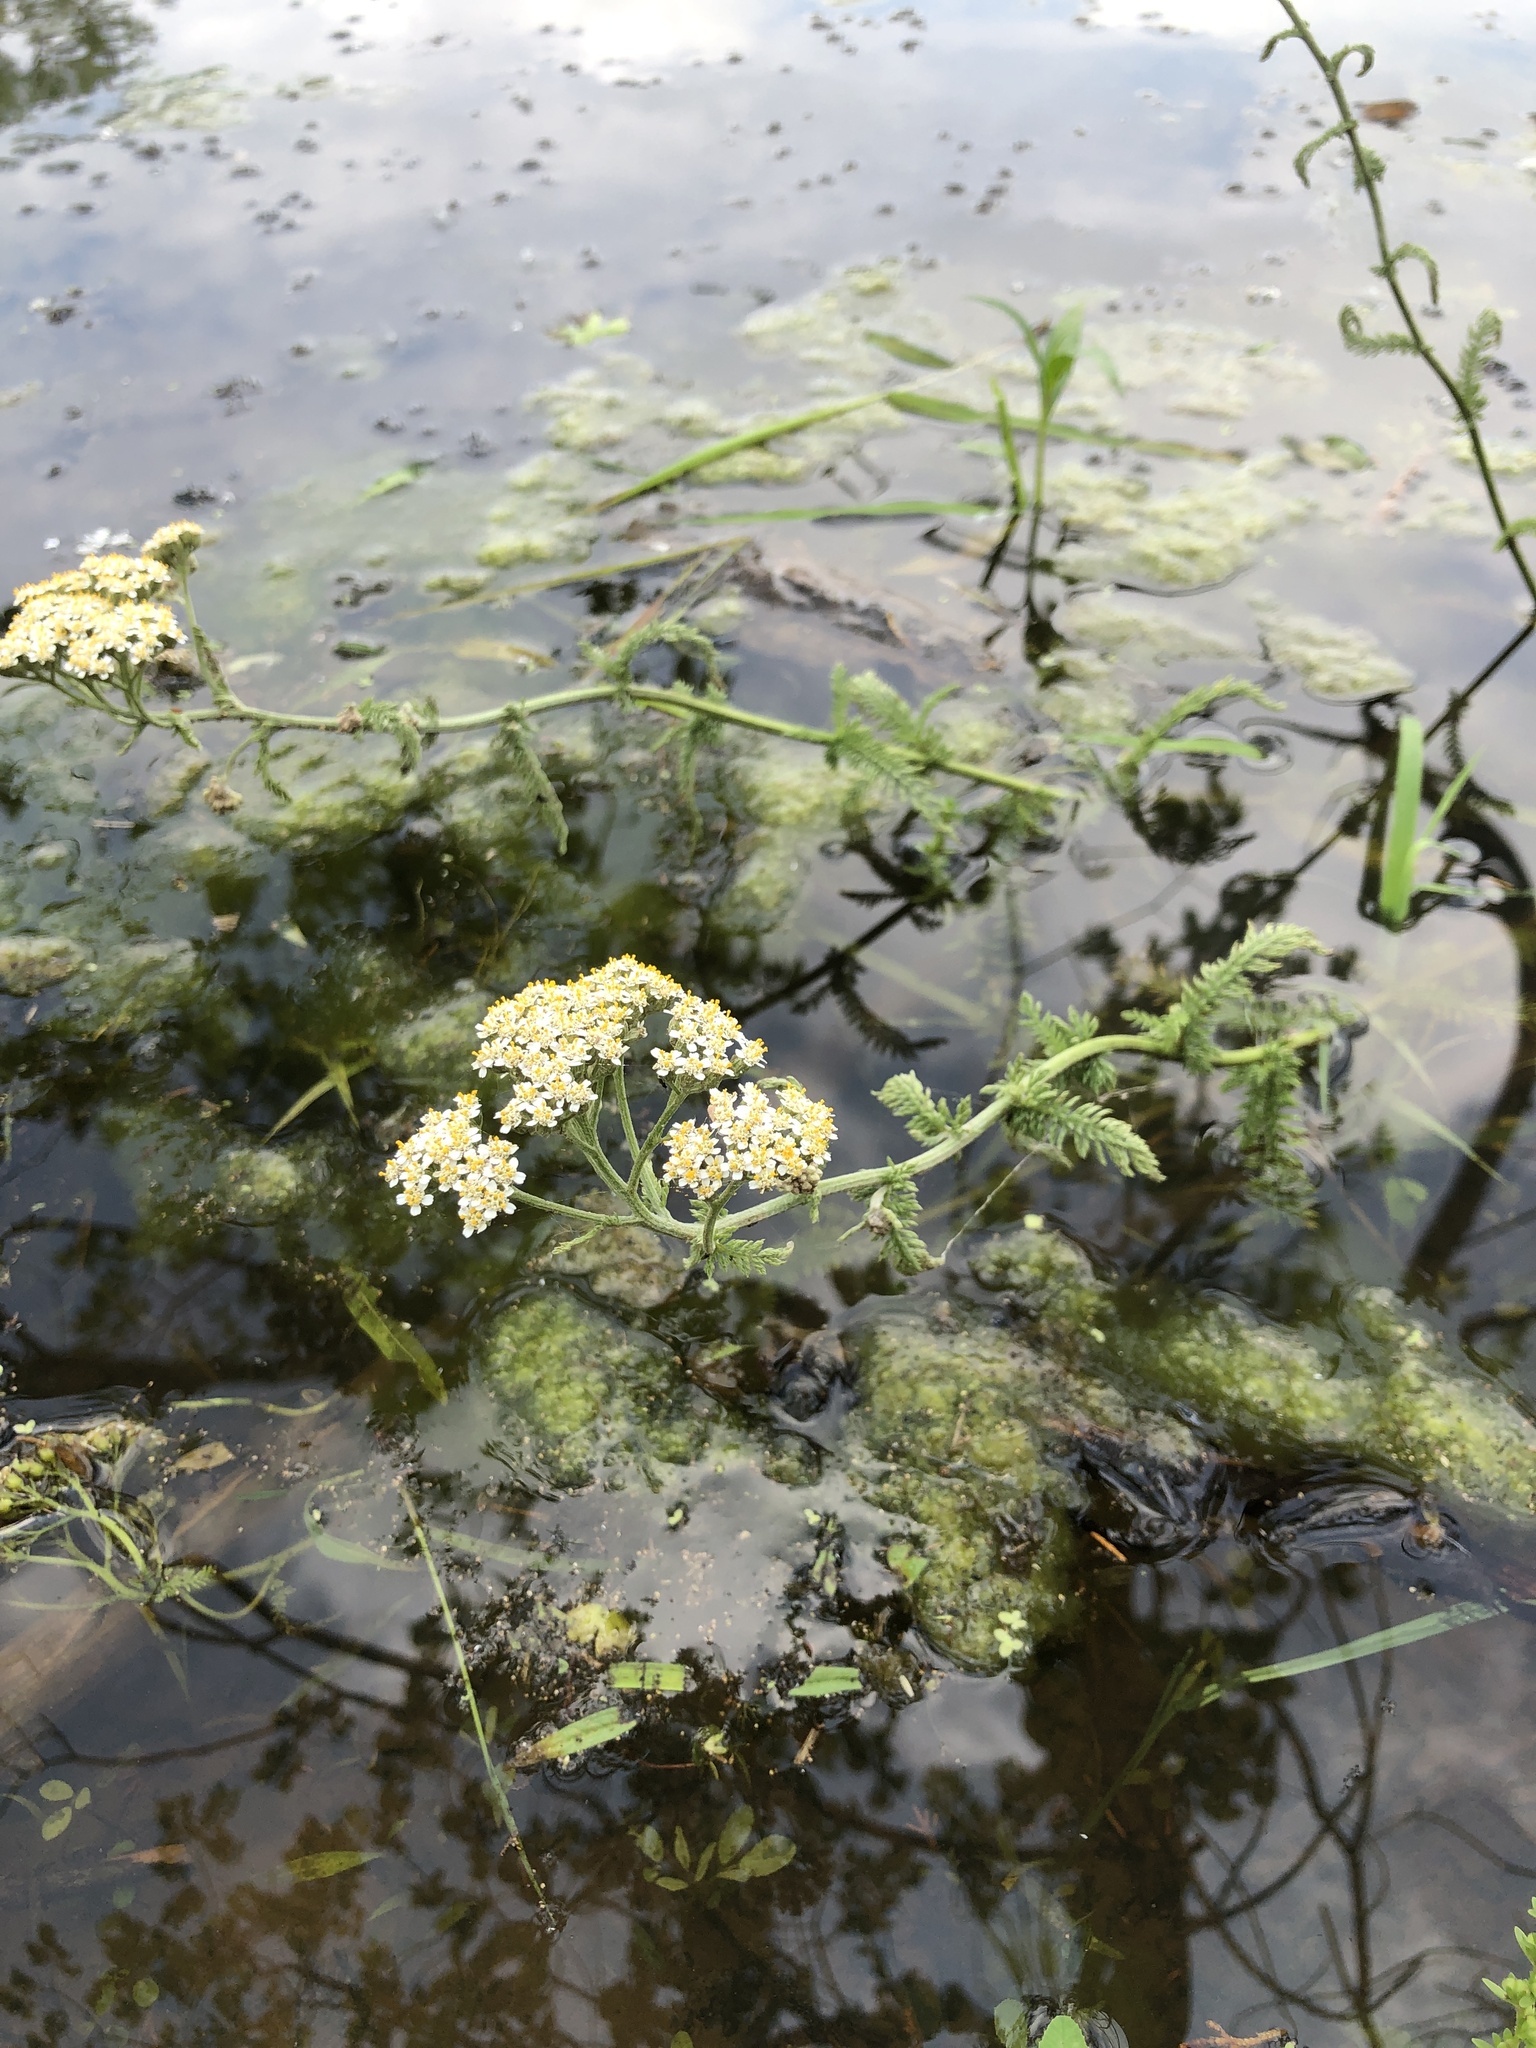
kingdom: Plantae
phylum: Tracheophyta
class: Magnoliopsida
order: Asterales
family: Asteraceae
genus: Achillea
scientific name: Achillea millefolium
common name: Yarrow
